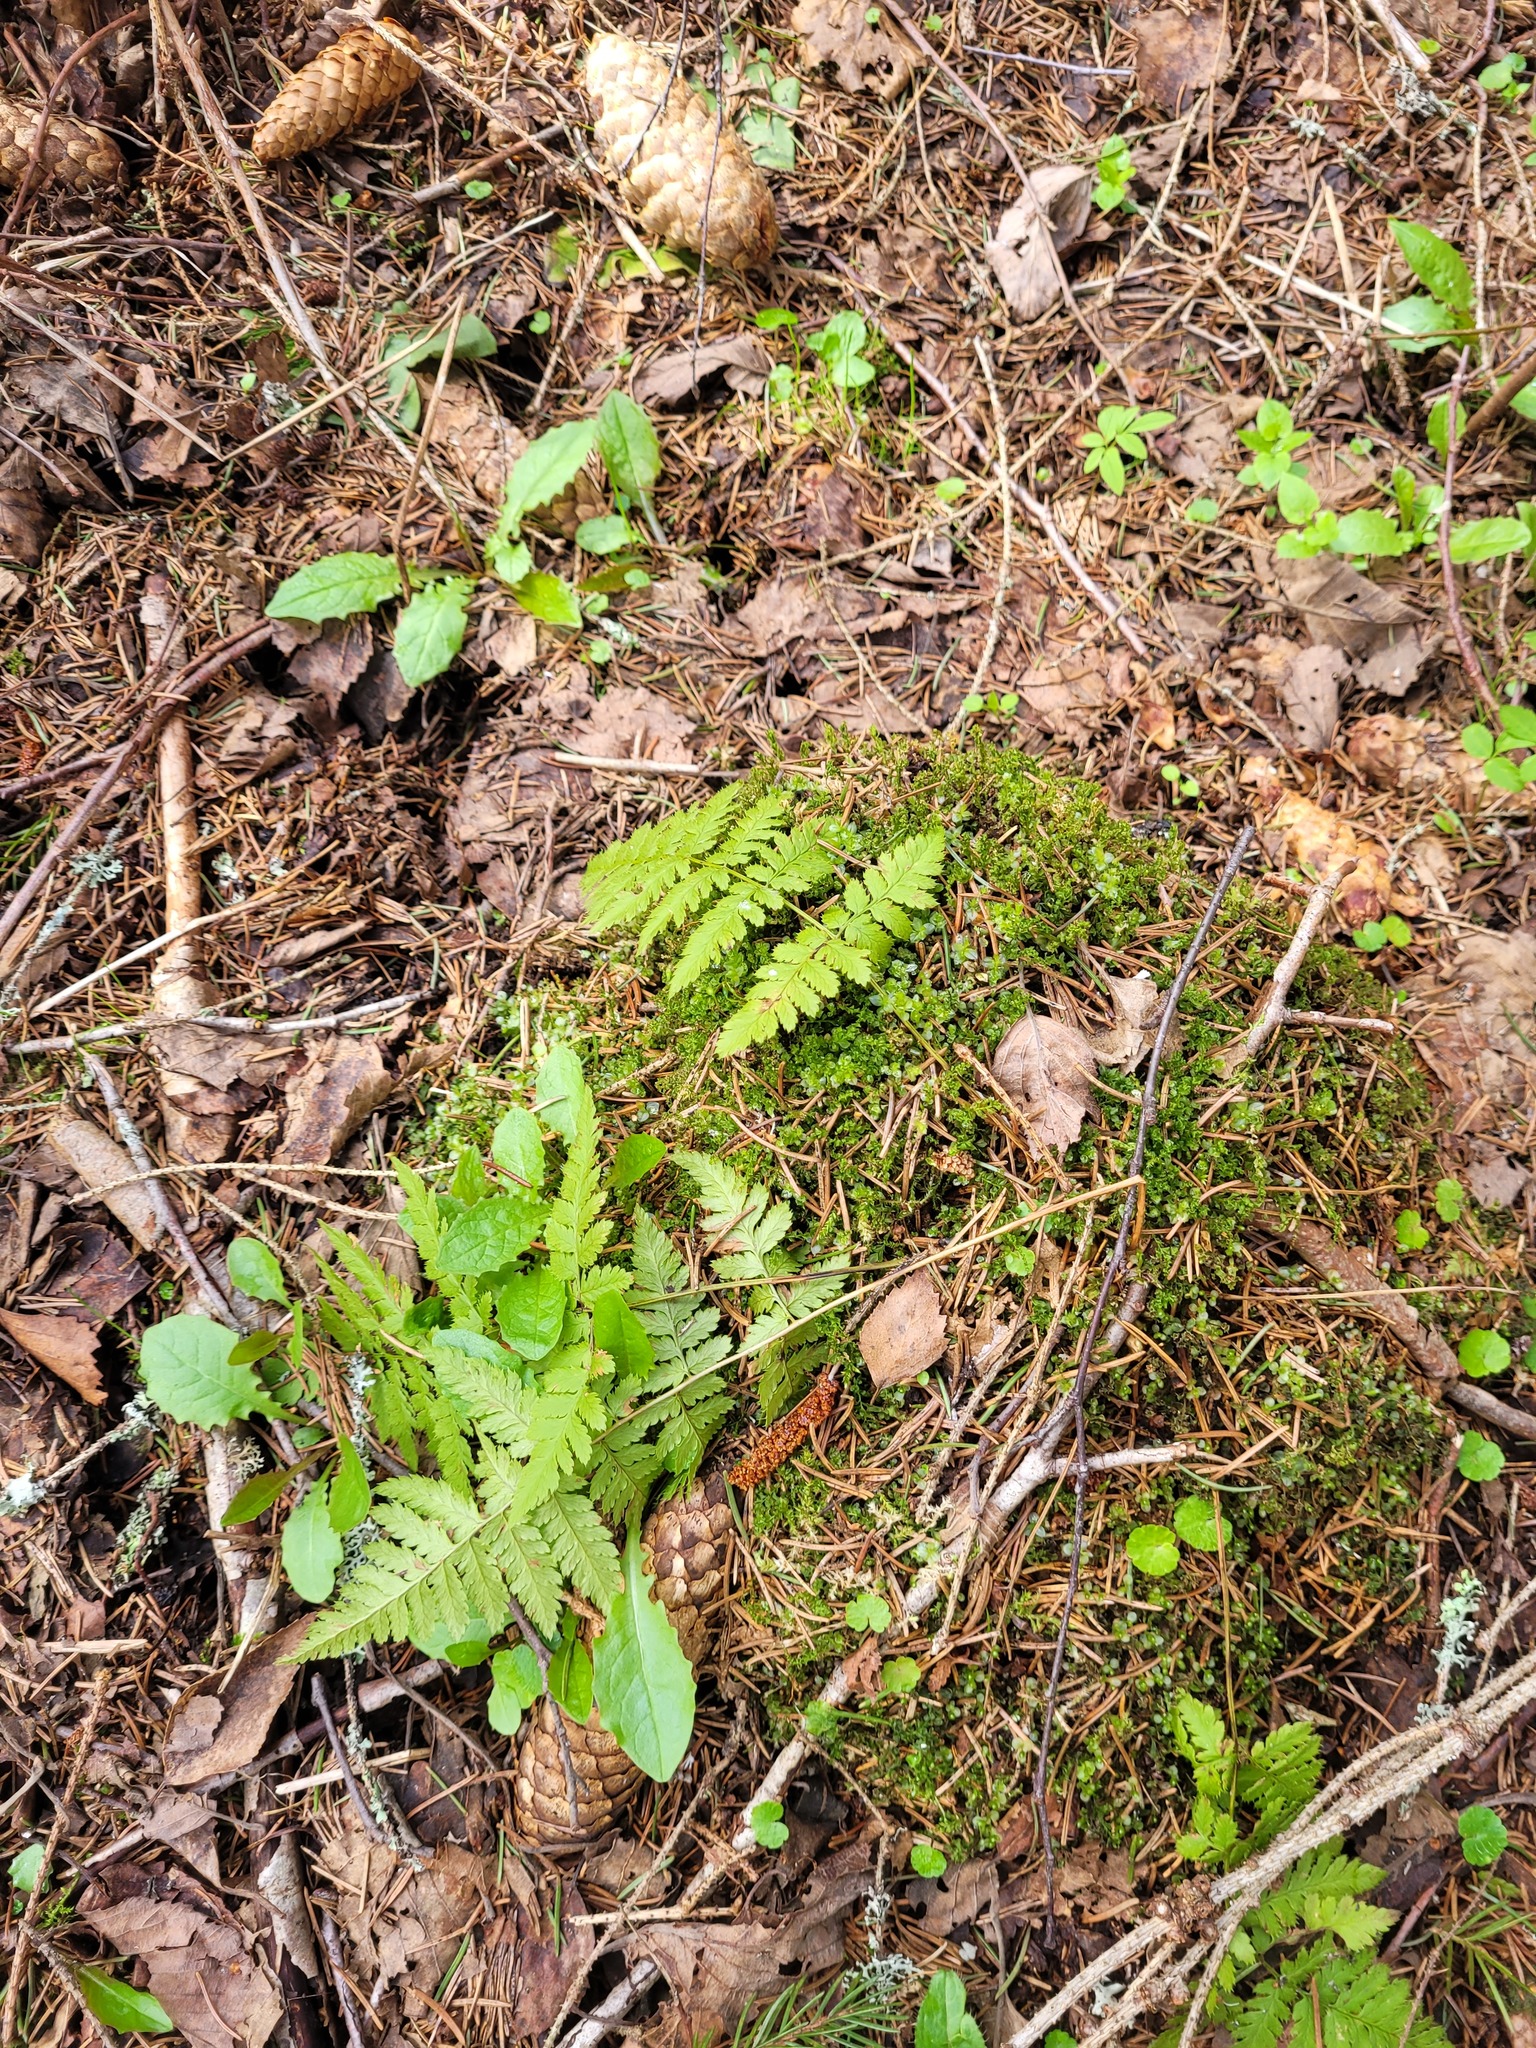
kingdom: Plantae
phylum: Tracheophyta
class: Polypodiopsida
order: Polypodiales
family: Dryopteridaceae
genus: Dryopteris
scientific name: Dryopteris carthusiana
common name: Narrow buckler-fern
